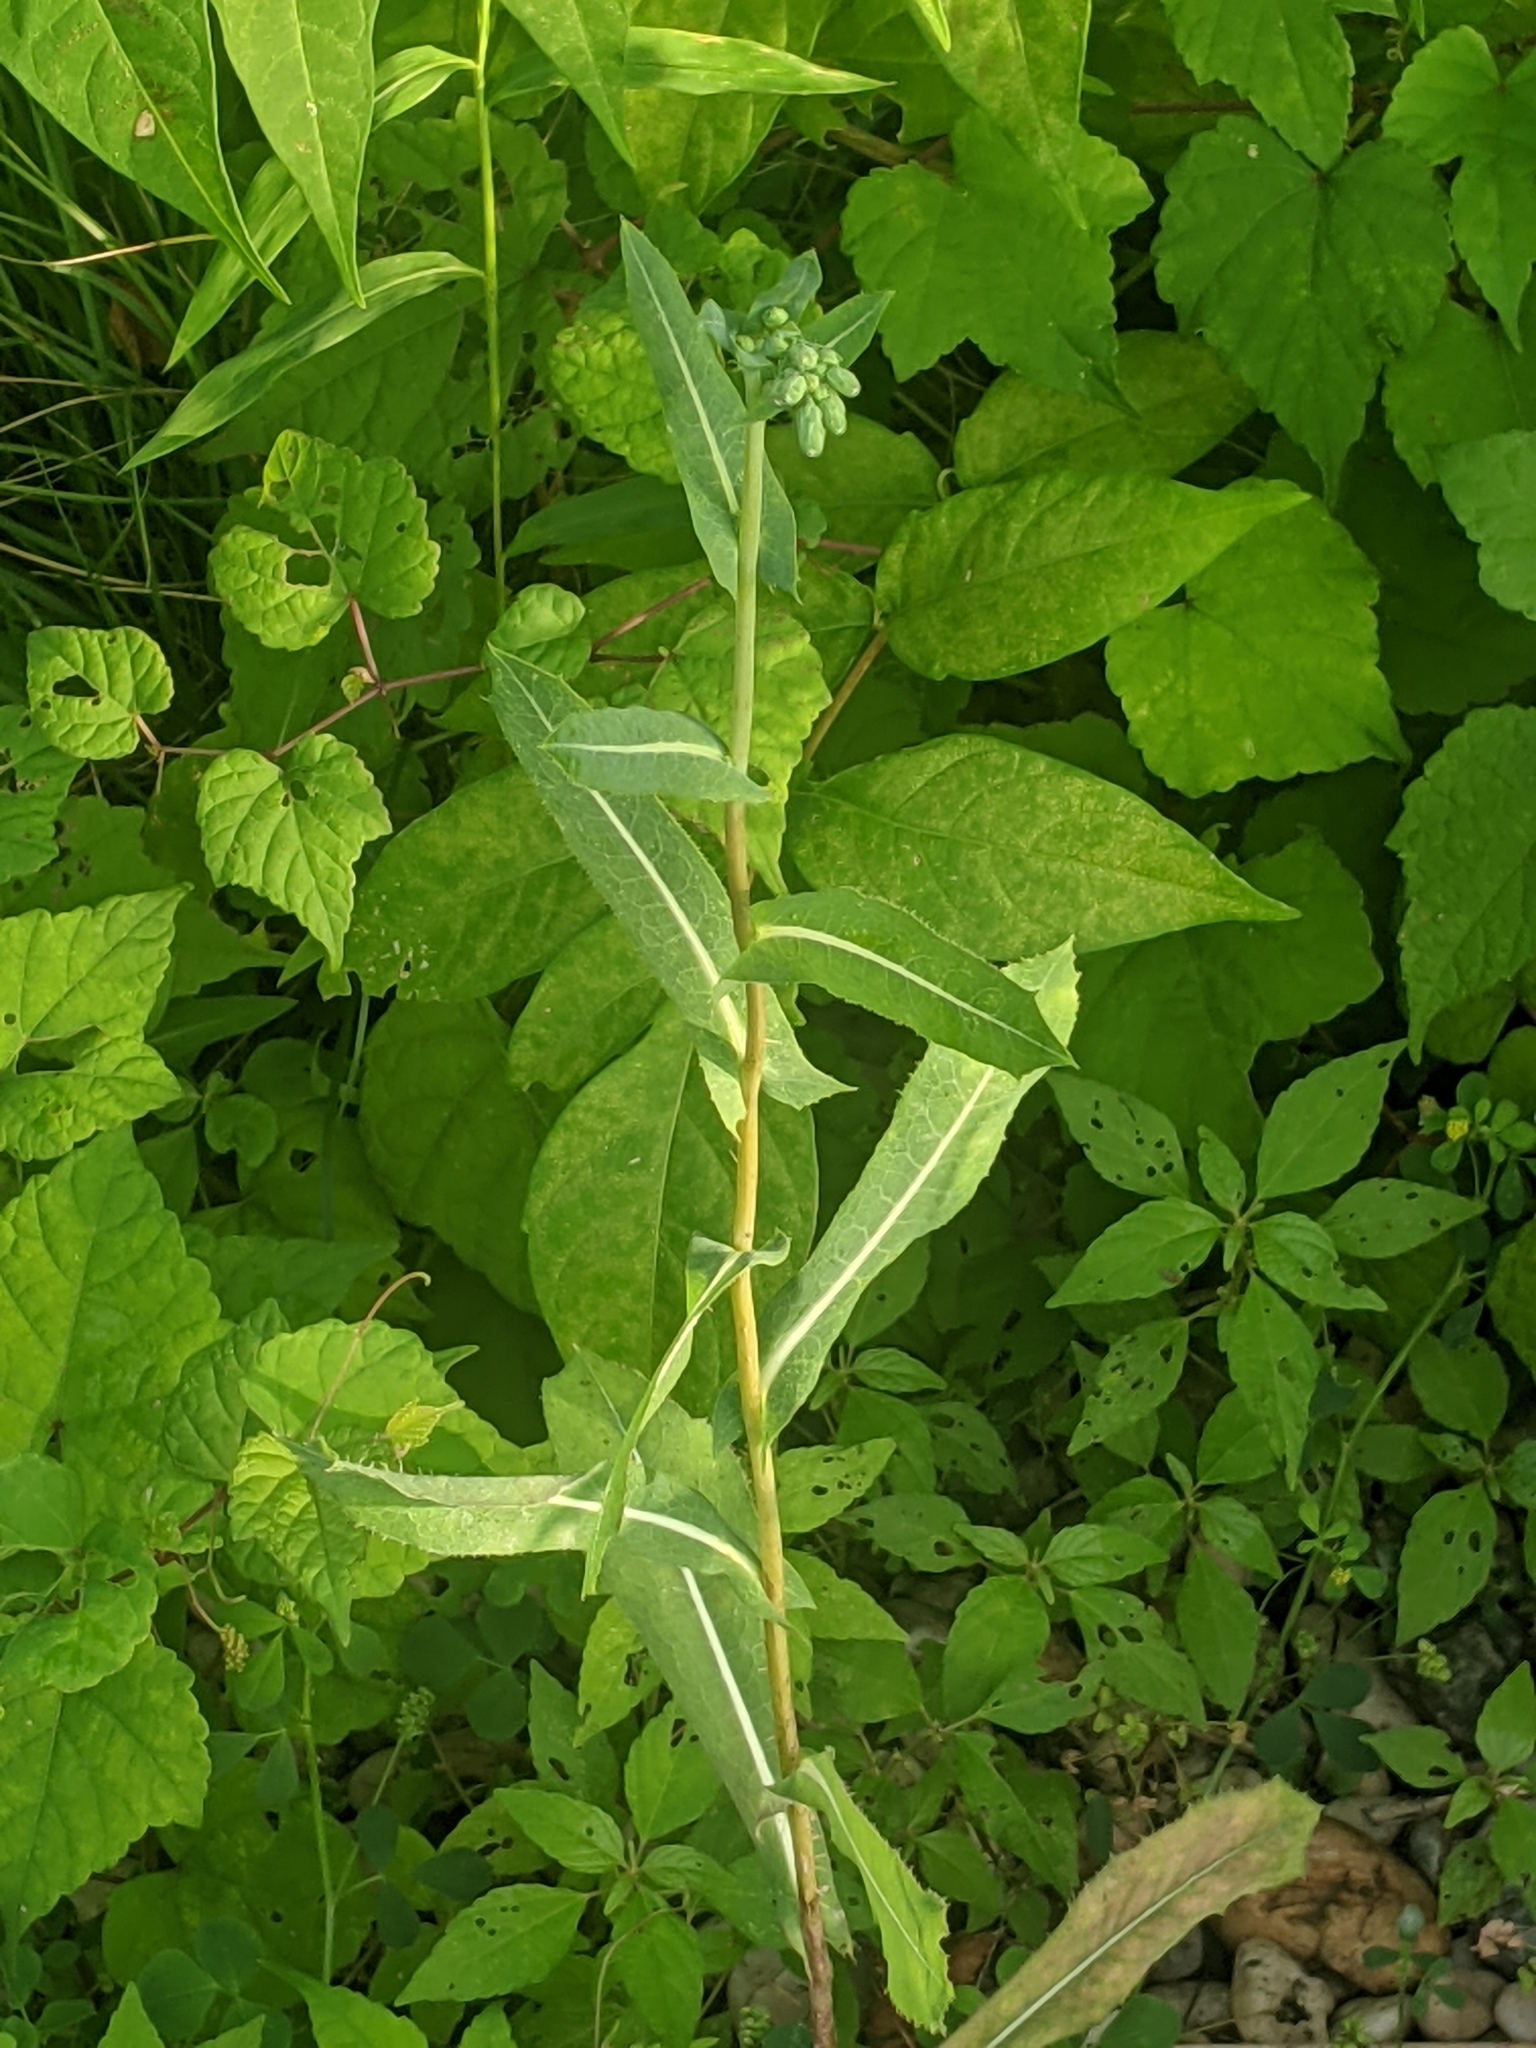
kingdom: Plantae
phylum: Tracheophyta
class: Magnoliopsida
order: Asterales
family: Asteraceae
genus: Lactuca
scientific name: Lactuca serriola
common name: Prickly lettuce
